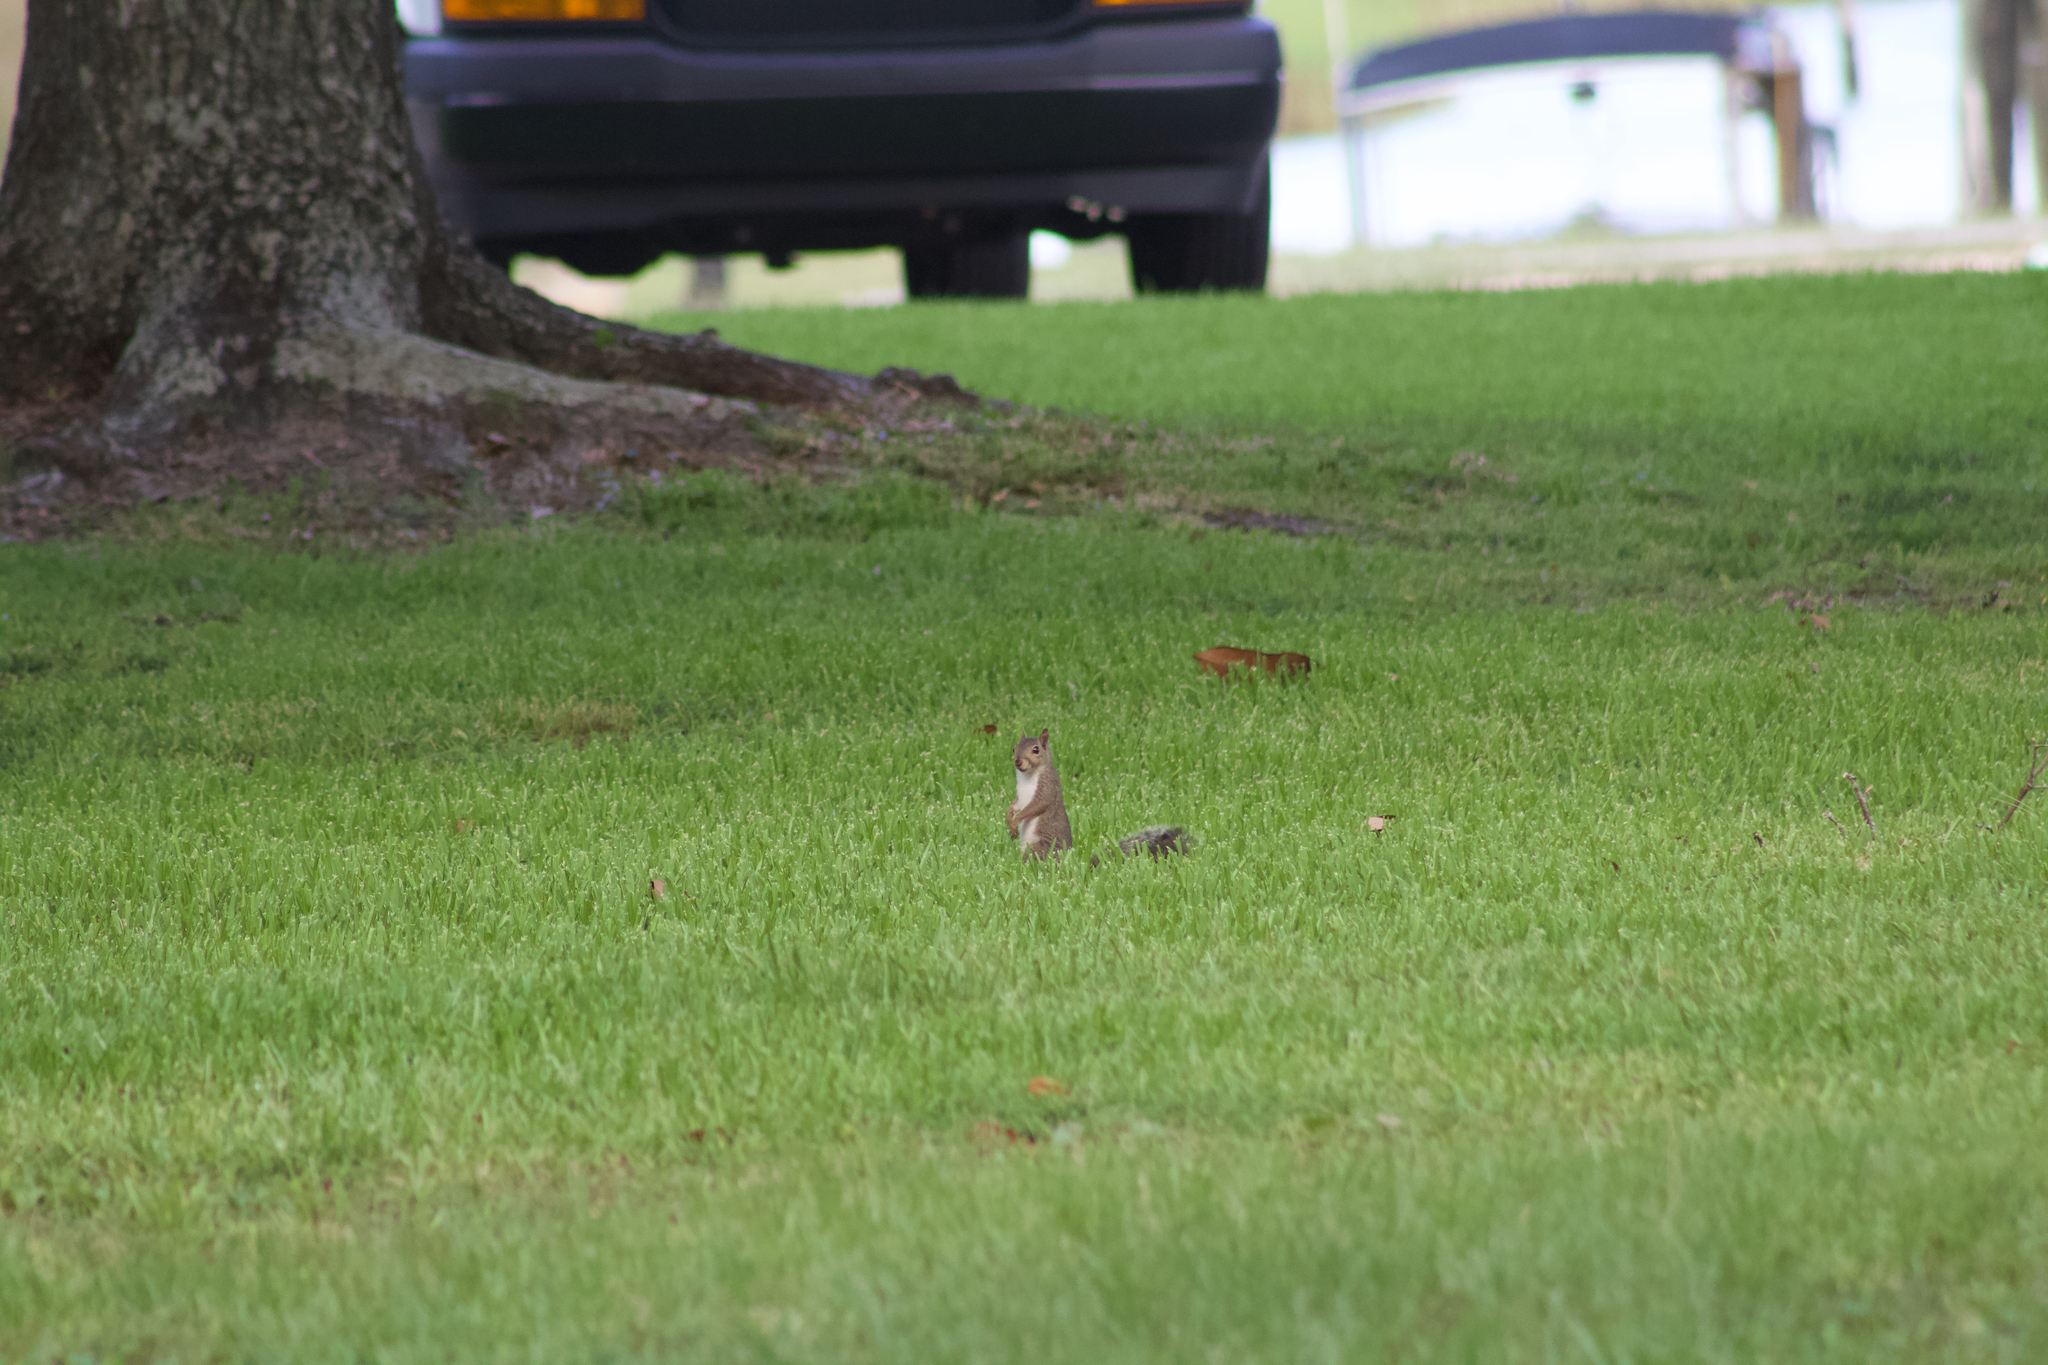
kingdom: Animalia
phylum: Chordata
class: Mammalia
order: Rodentia
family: Sciuridae
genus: Sciurus
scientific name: Sciurus carolinensis
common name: Eastern gray squirrel
